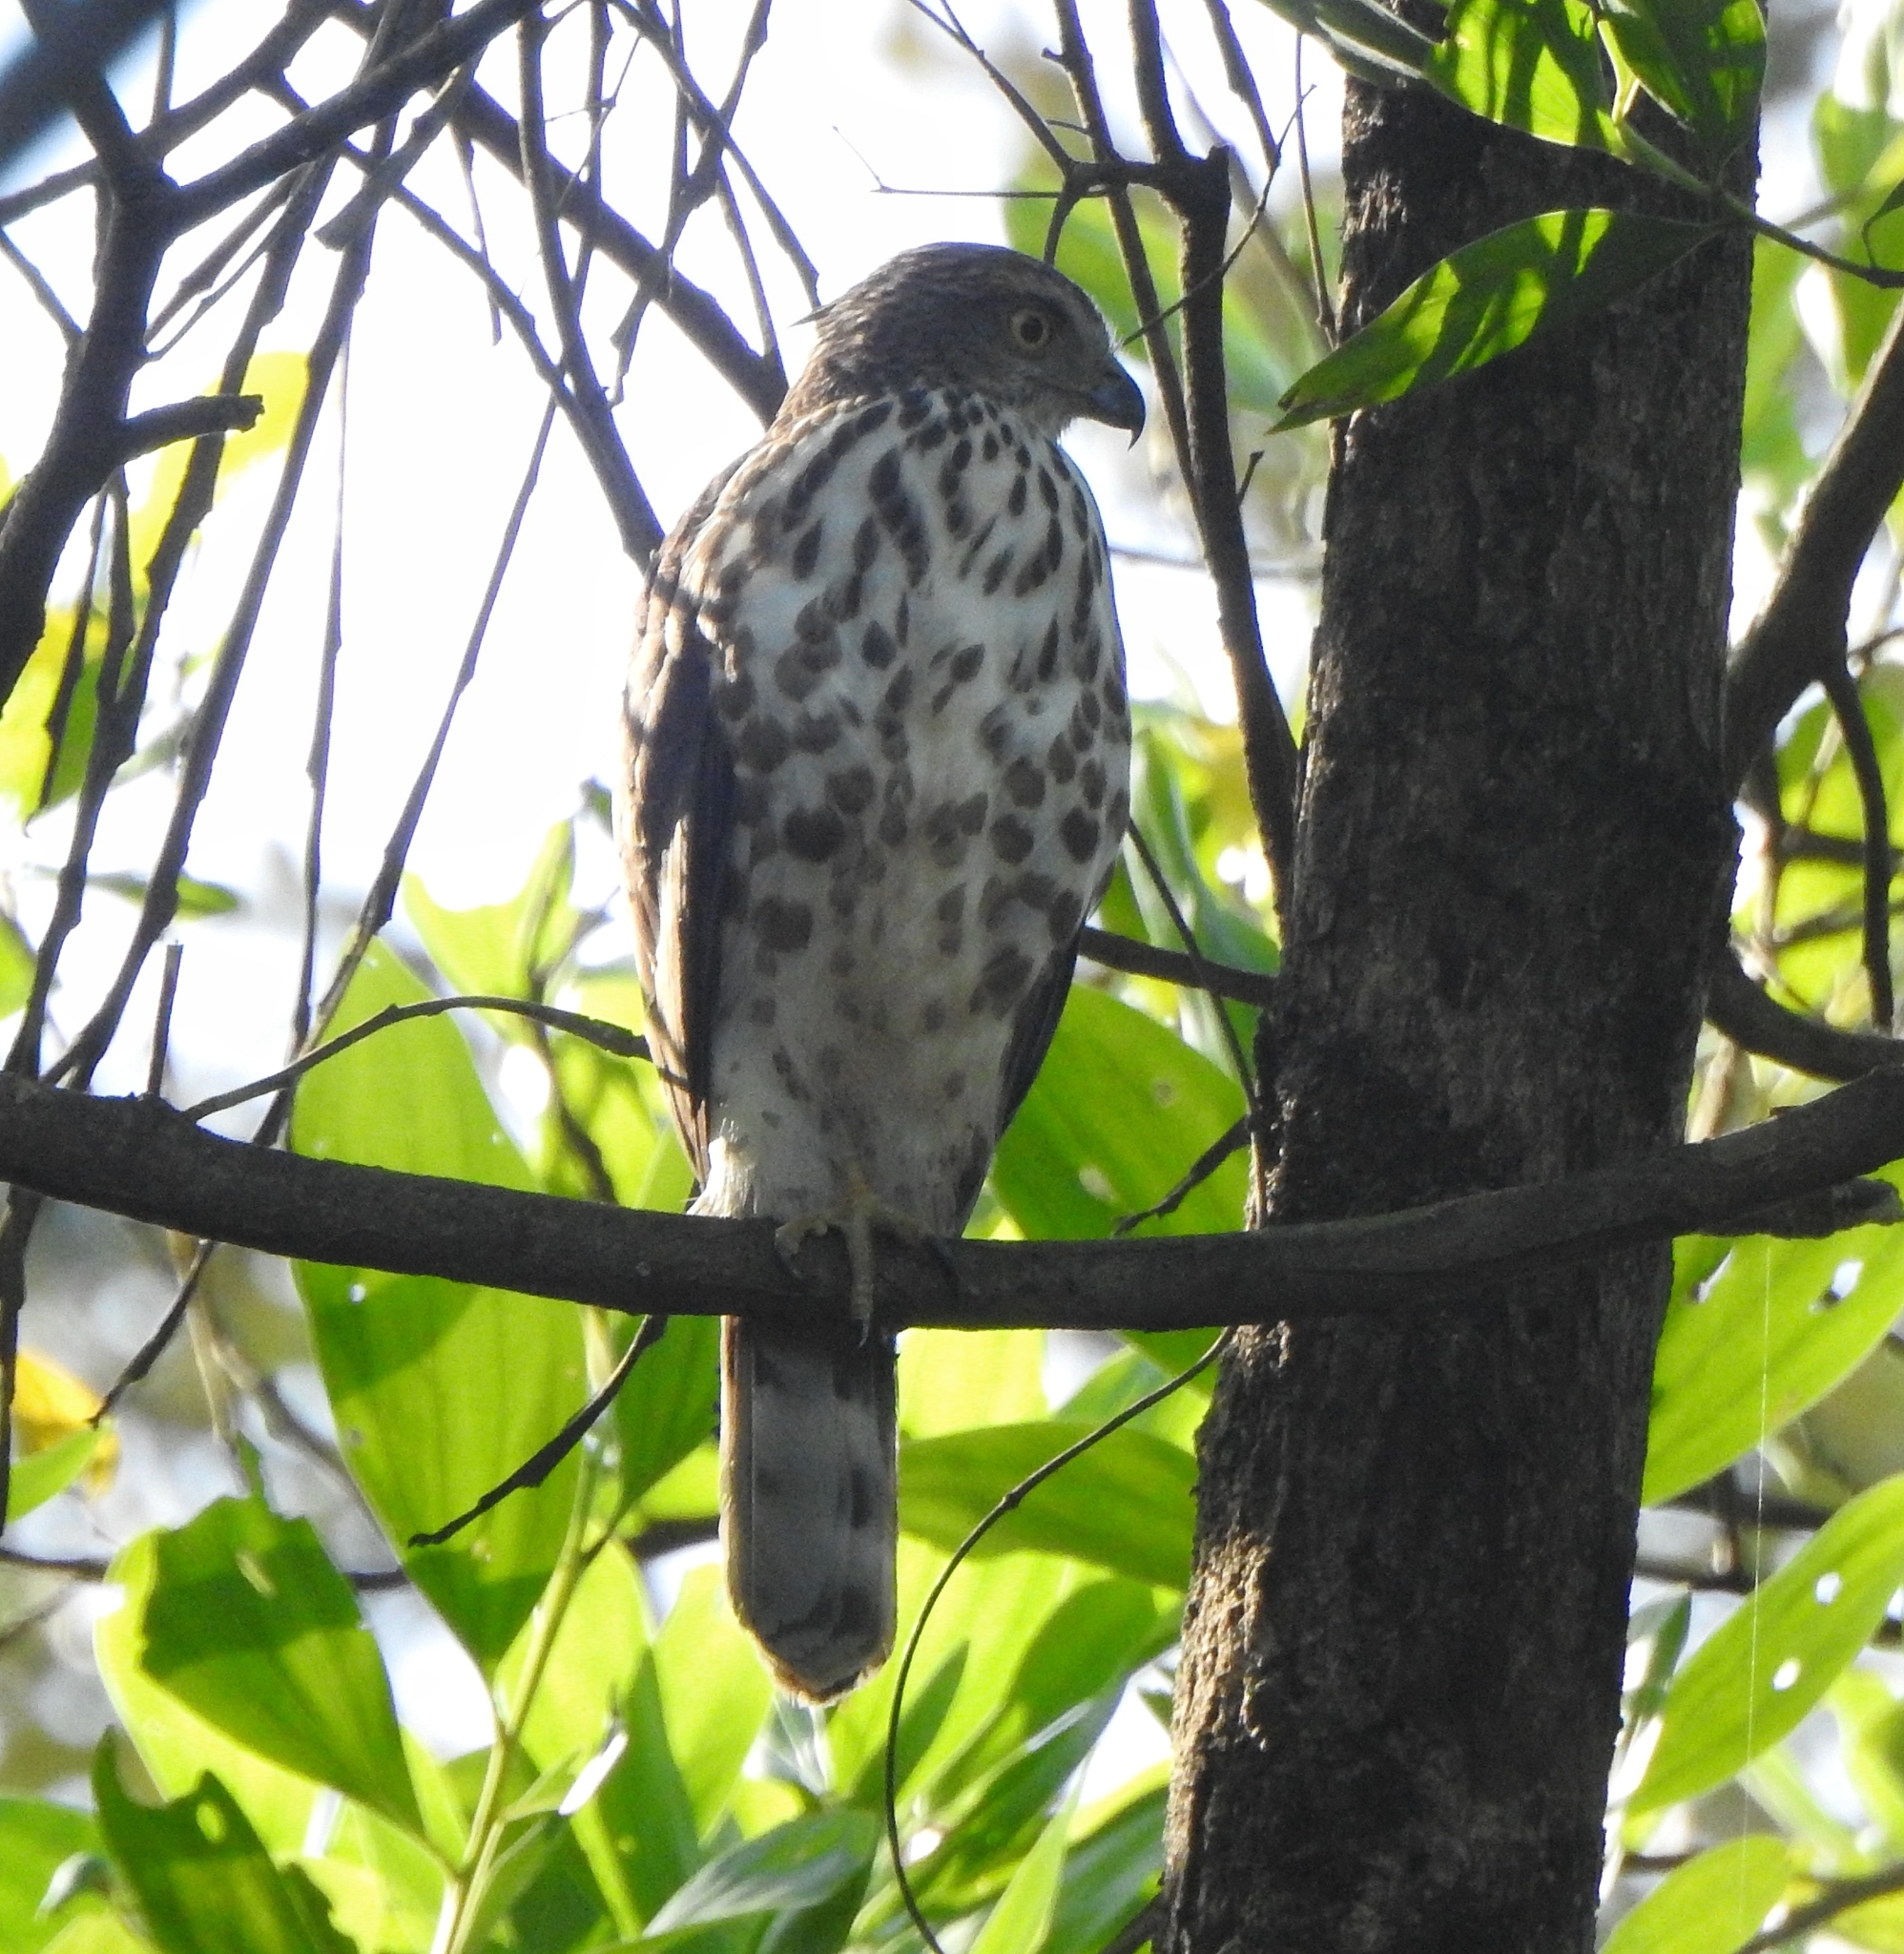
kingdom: Animalia
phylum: Chordata
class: Aves
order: Accipitriformes
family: Accipitridae
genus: Accipiter
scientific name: Accipiter trivirgatus
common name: Crested goshawk
